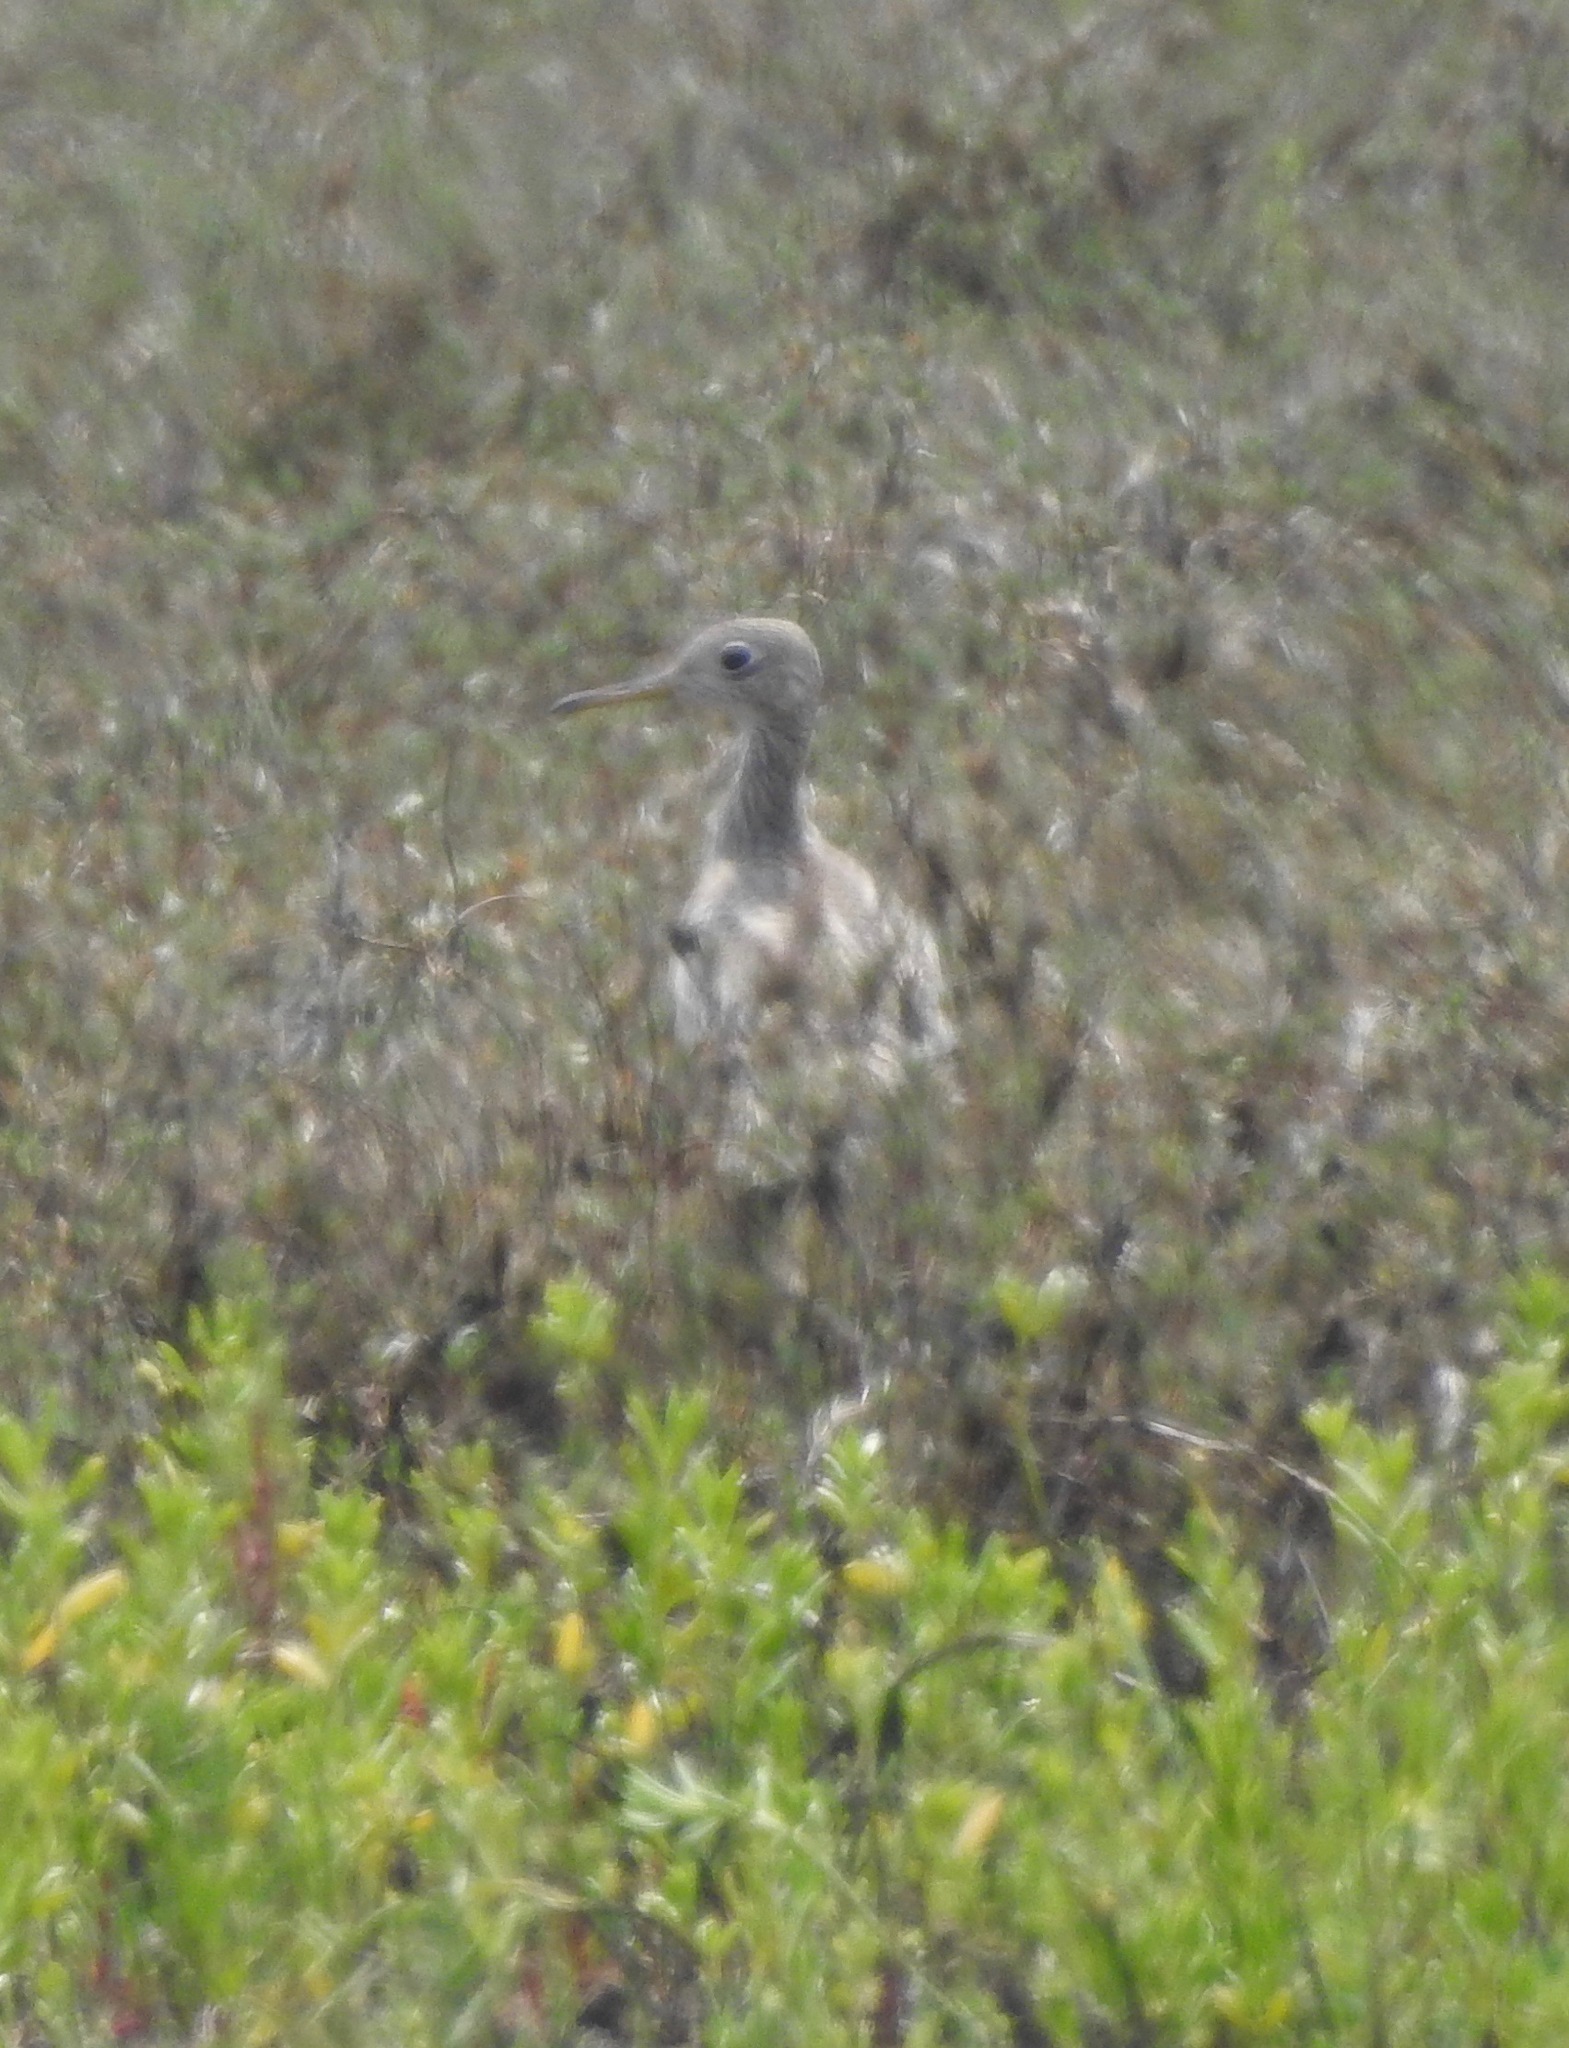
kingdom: Animalia
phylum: Chordata
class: Aves
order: Charadriiformes
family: Scolopacidae
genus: Bartramia
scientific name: Bartramia longicauda
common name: Upland sandpiper
